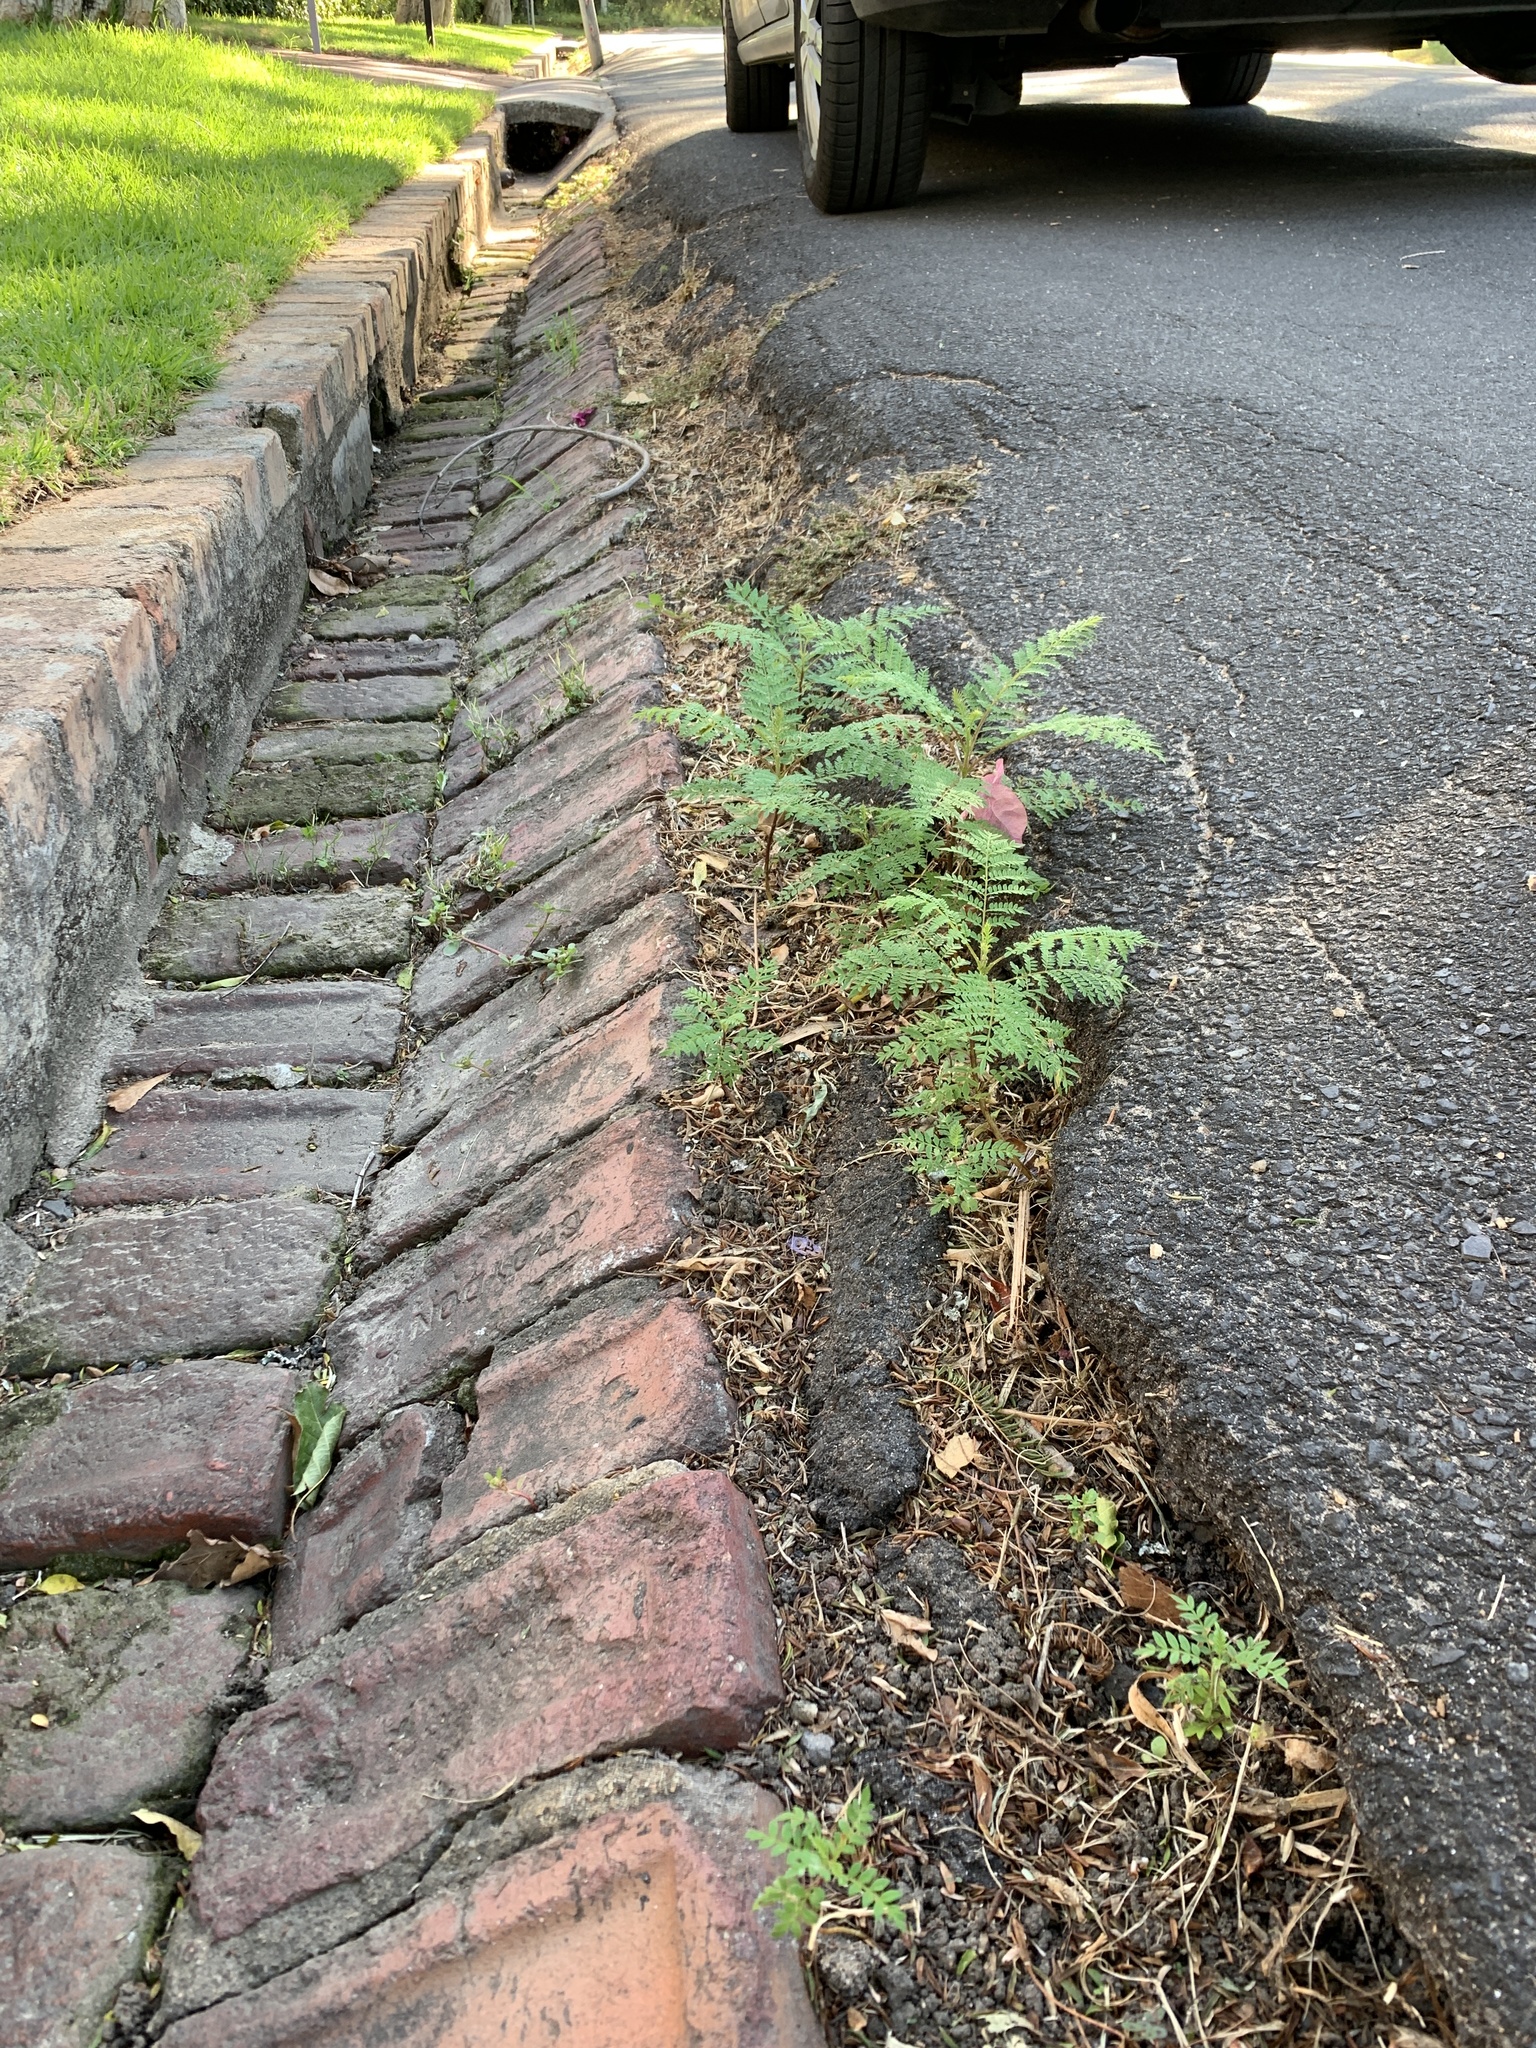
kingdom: Plantae
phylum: Tracheophyta
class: Magnoliopsida
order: Lamiales
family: Bignoniaceae
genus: Jacaranda
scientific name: Jacaranda mimosifolia
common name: Black poui
